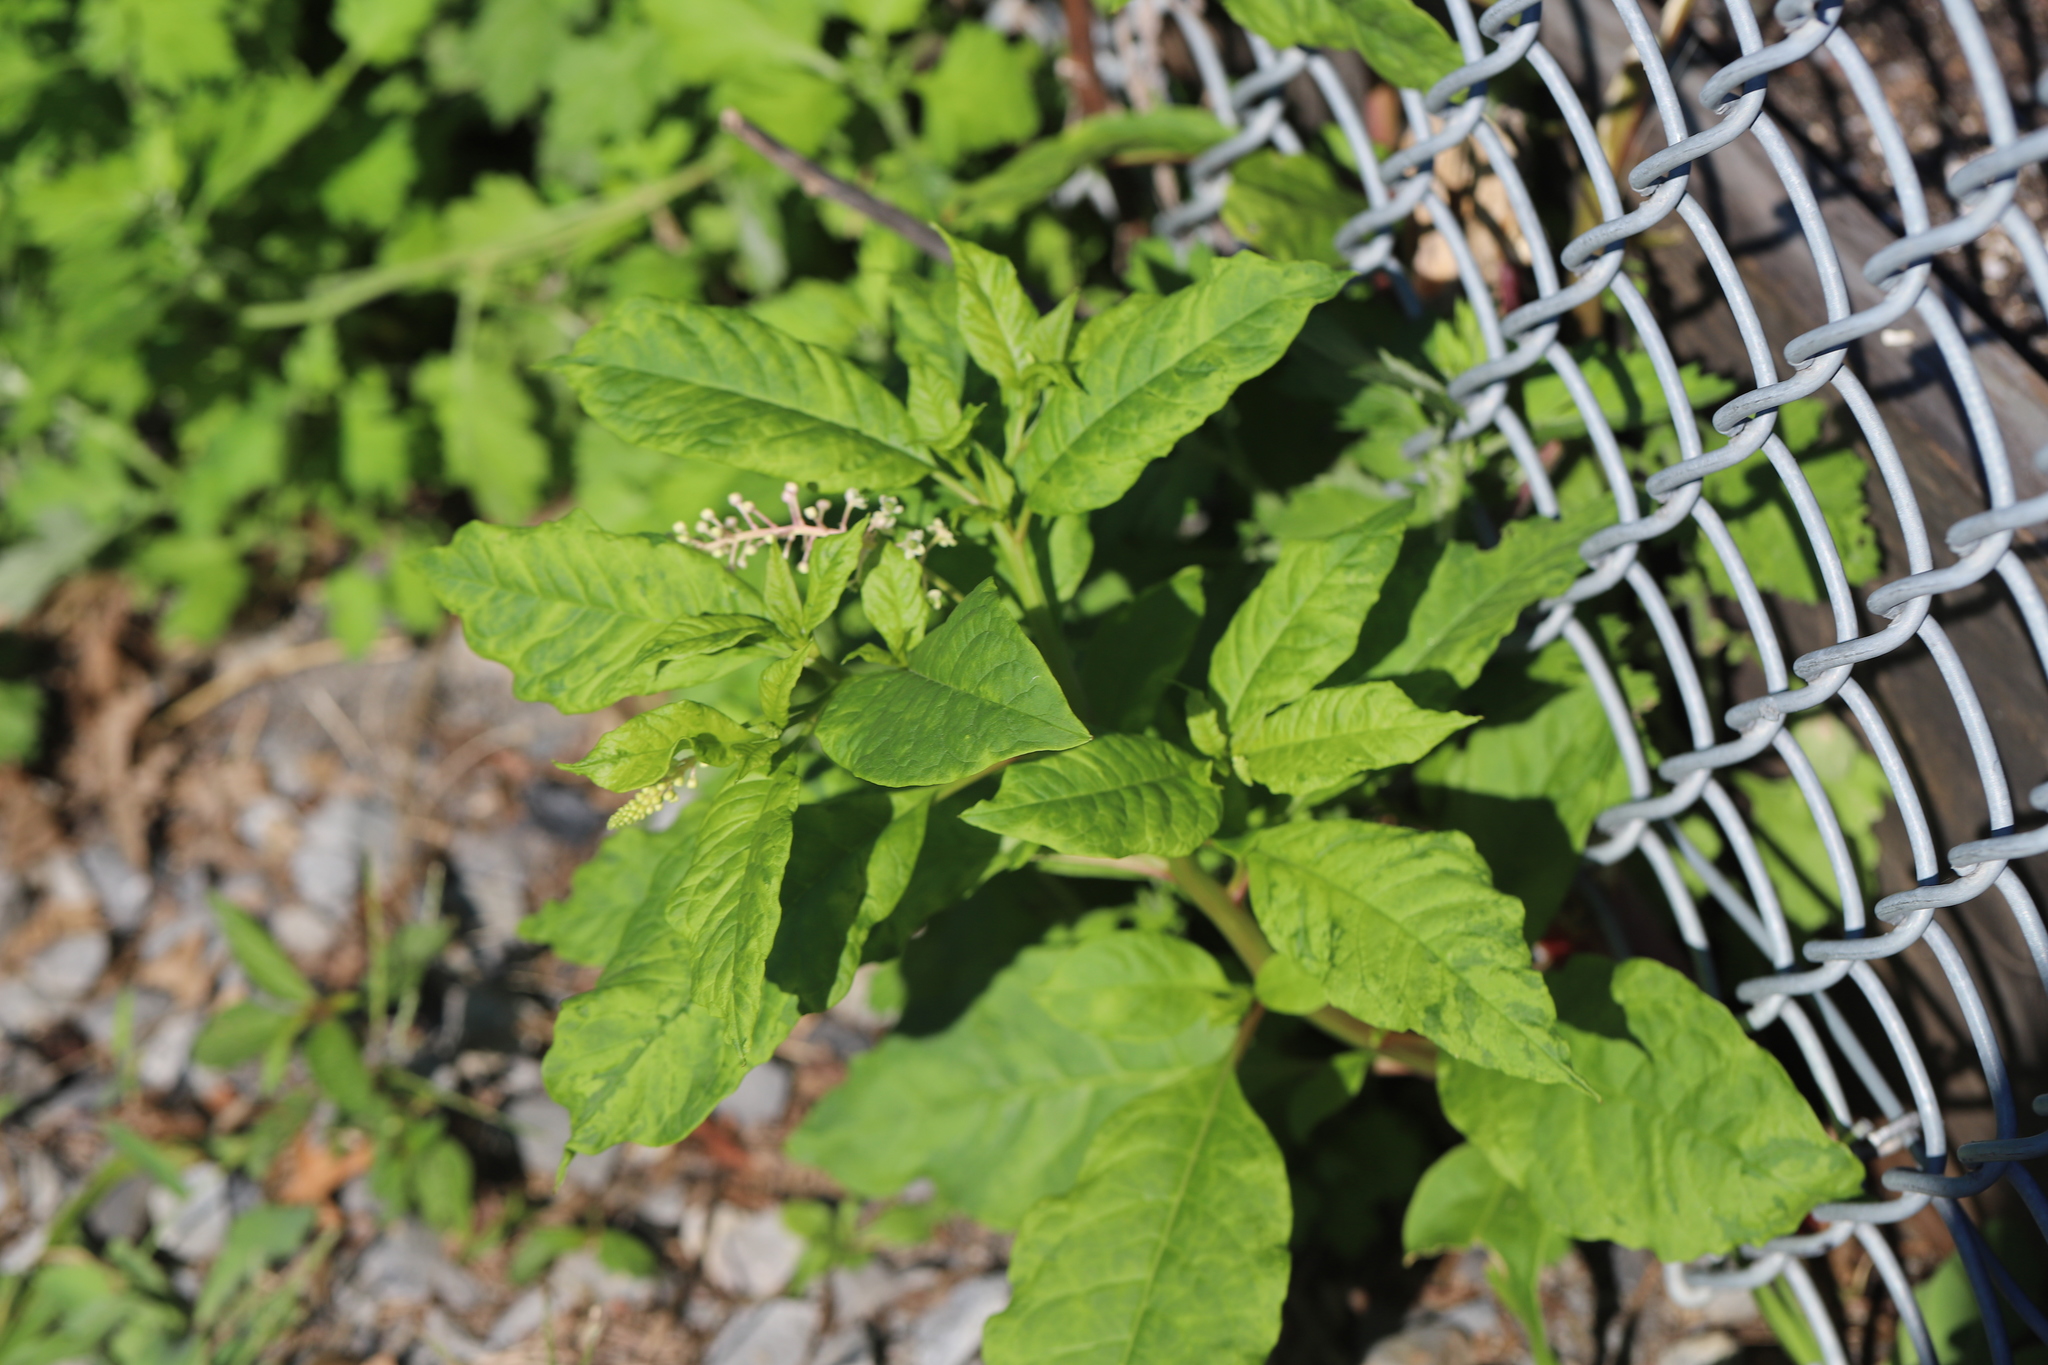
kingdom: Viruses
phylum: Pisuviricota
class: Stelpaviricetes
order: Patatavirales
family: Potyviridae
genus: Potyvirus
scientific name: Potyvirus Pokeweed mosaic virus
